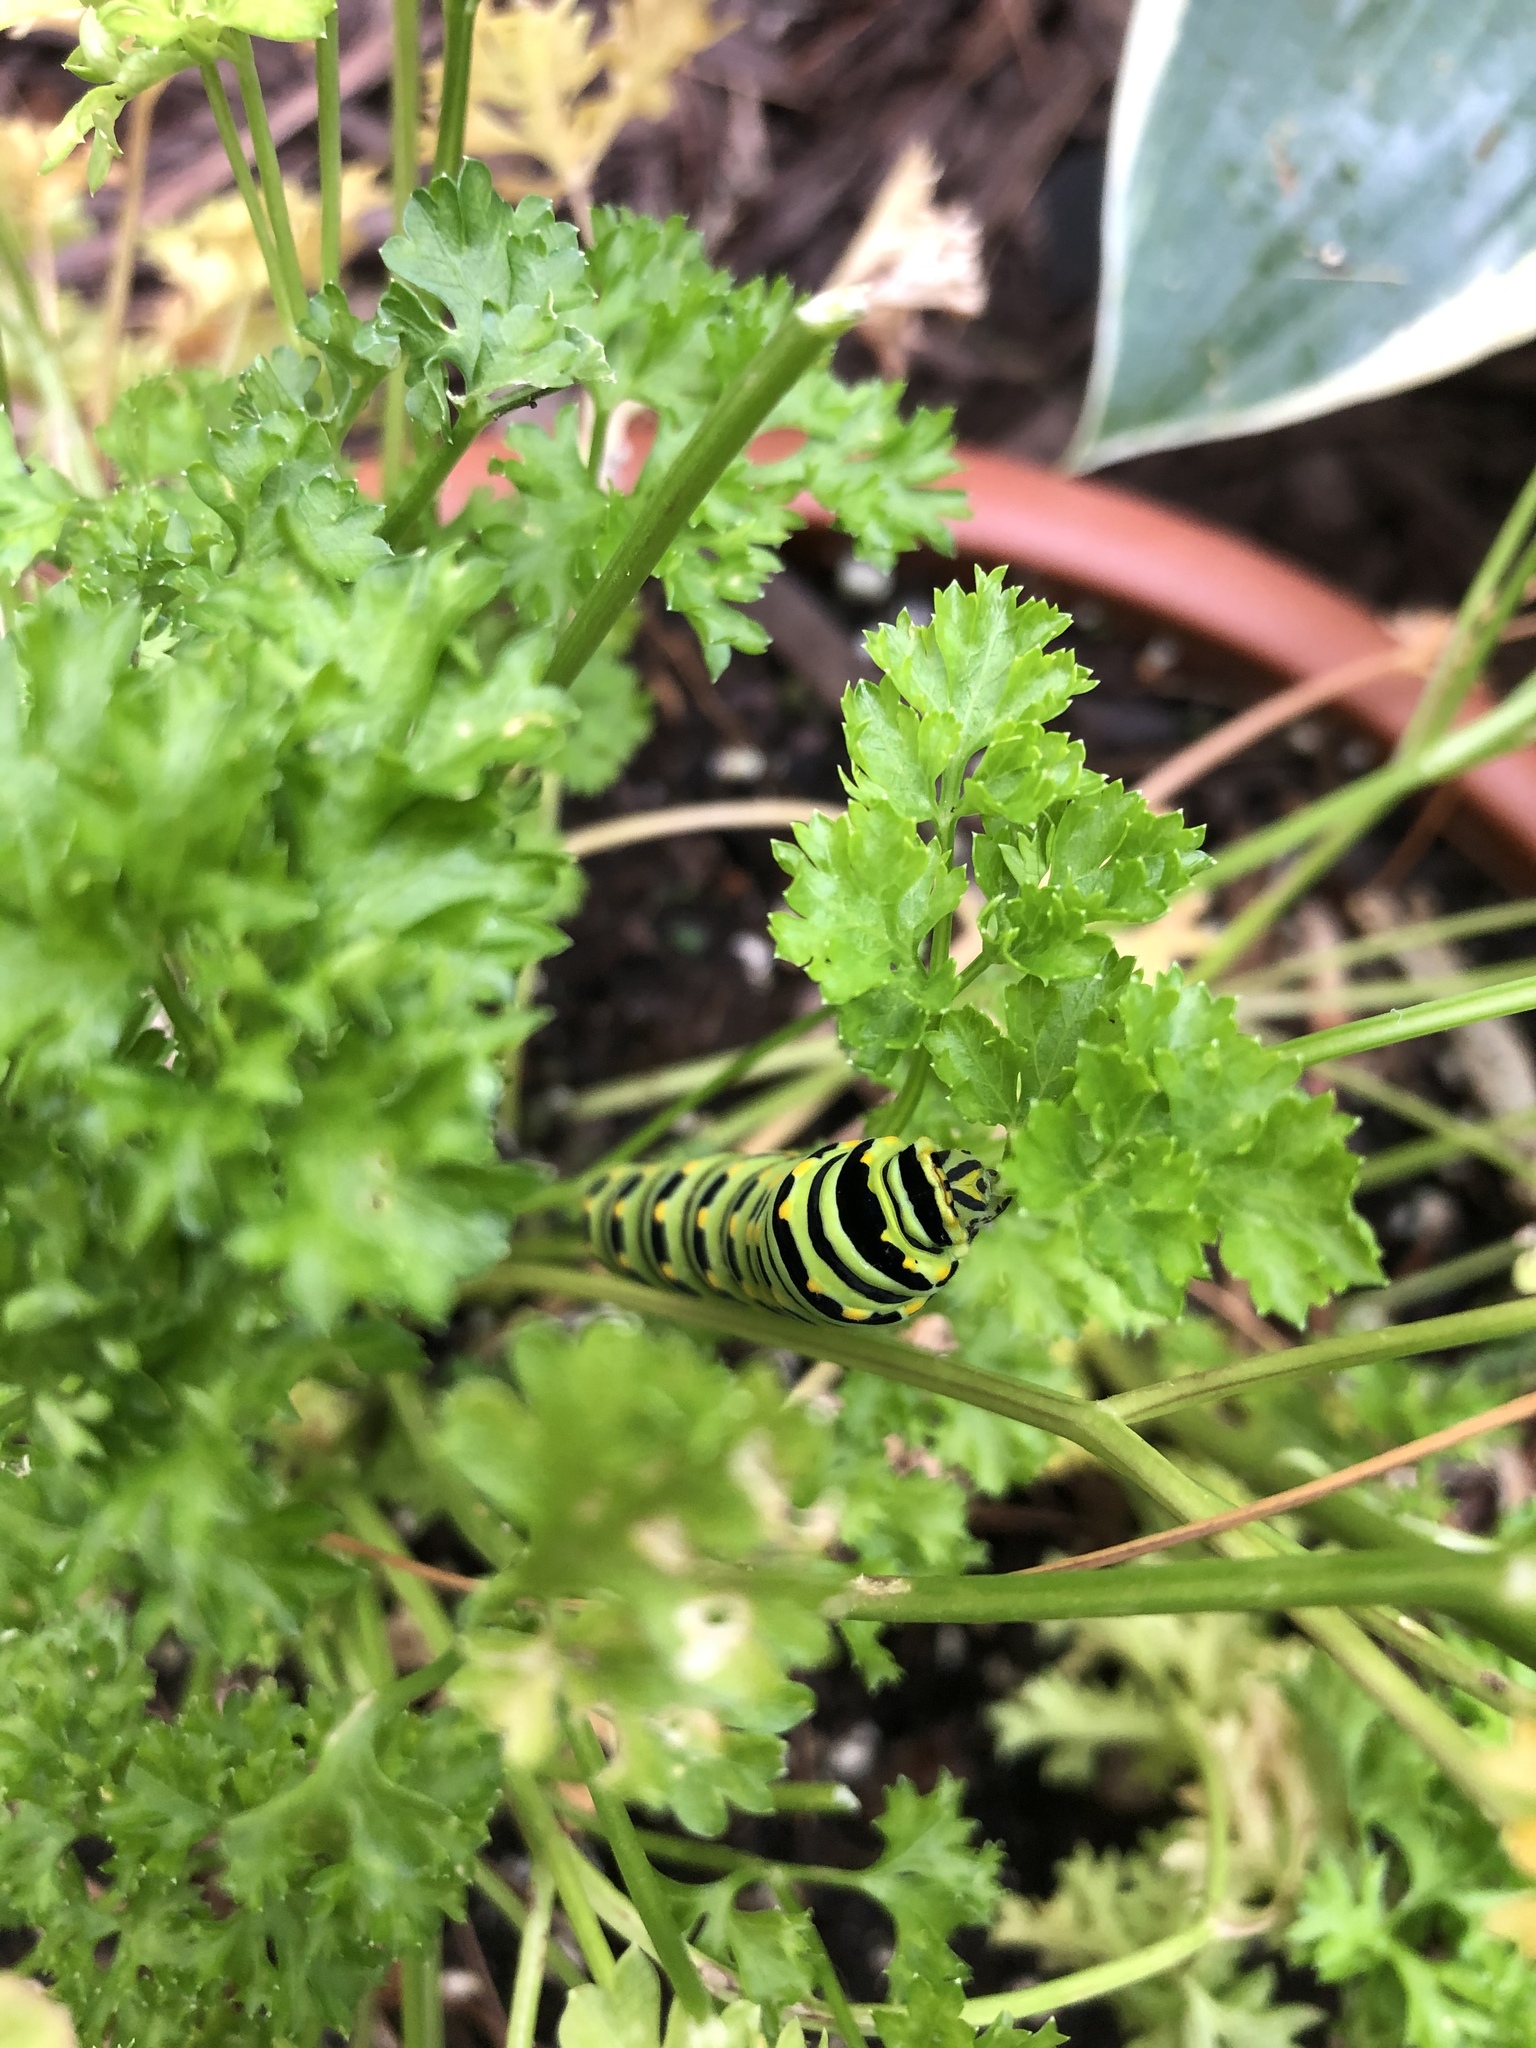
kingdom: Animalia
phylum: Arthropoda
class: Insecta
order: Lepidoptera
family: Papilionidae
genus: Papilio
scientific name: Papilio polyxenes
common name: Black swallowtail
